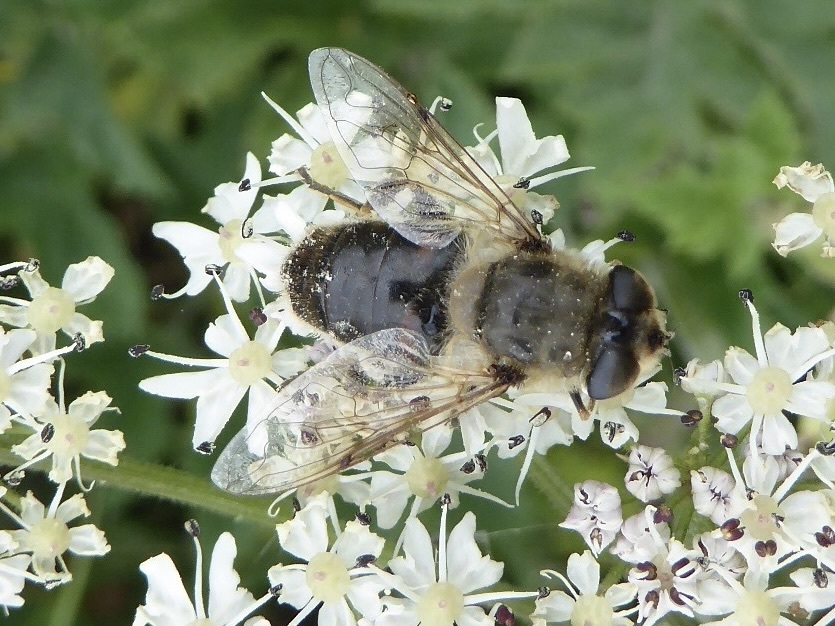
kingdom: Animalia
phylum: Arthropoda
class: Insecta
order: Diptera
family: Syrphidae
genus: Eristalis
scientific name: Eristalis tenax
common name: Drone fly
